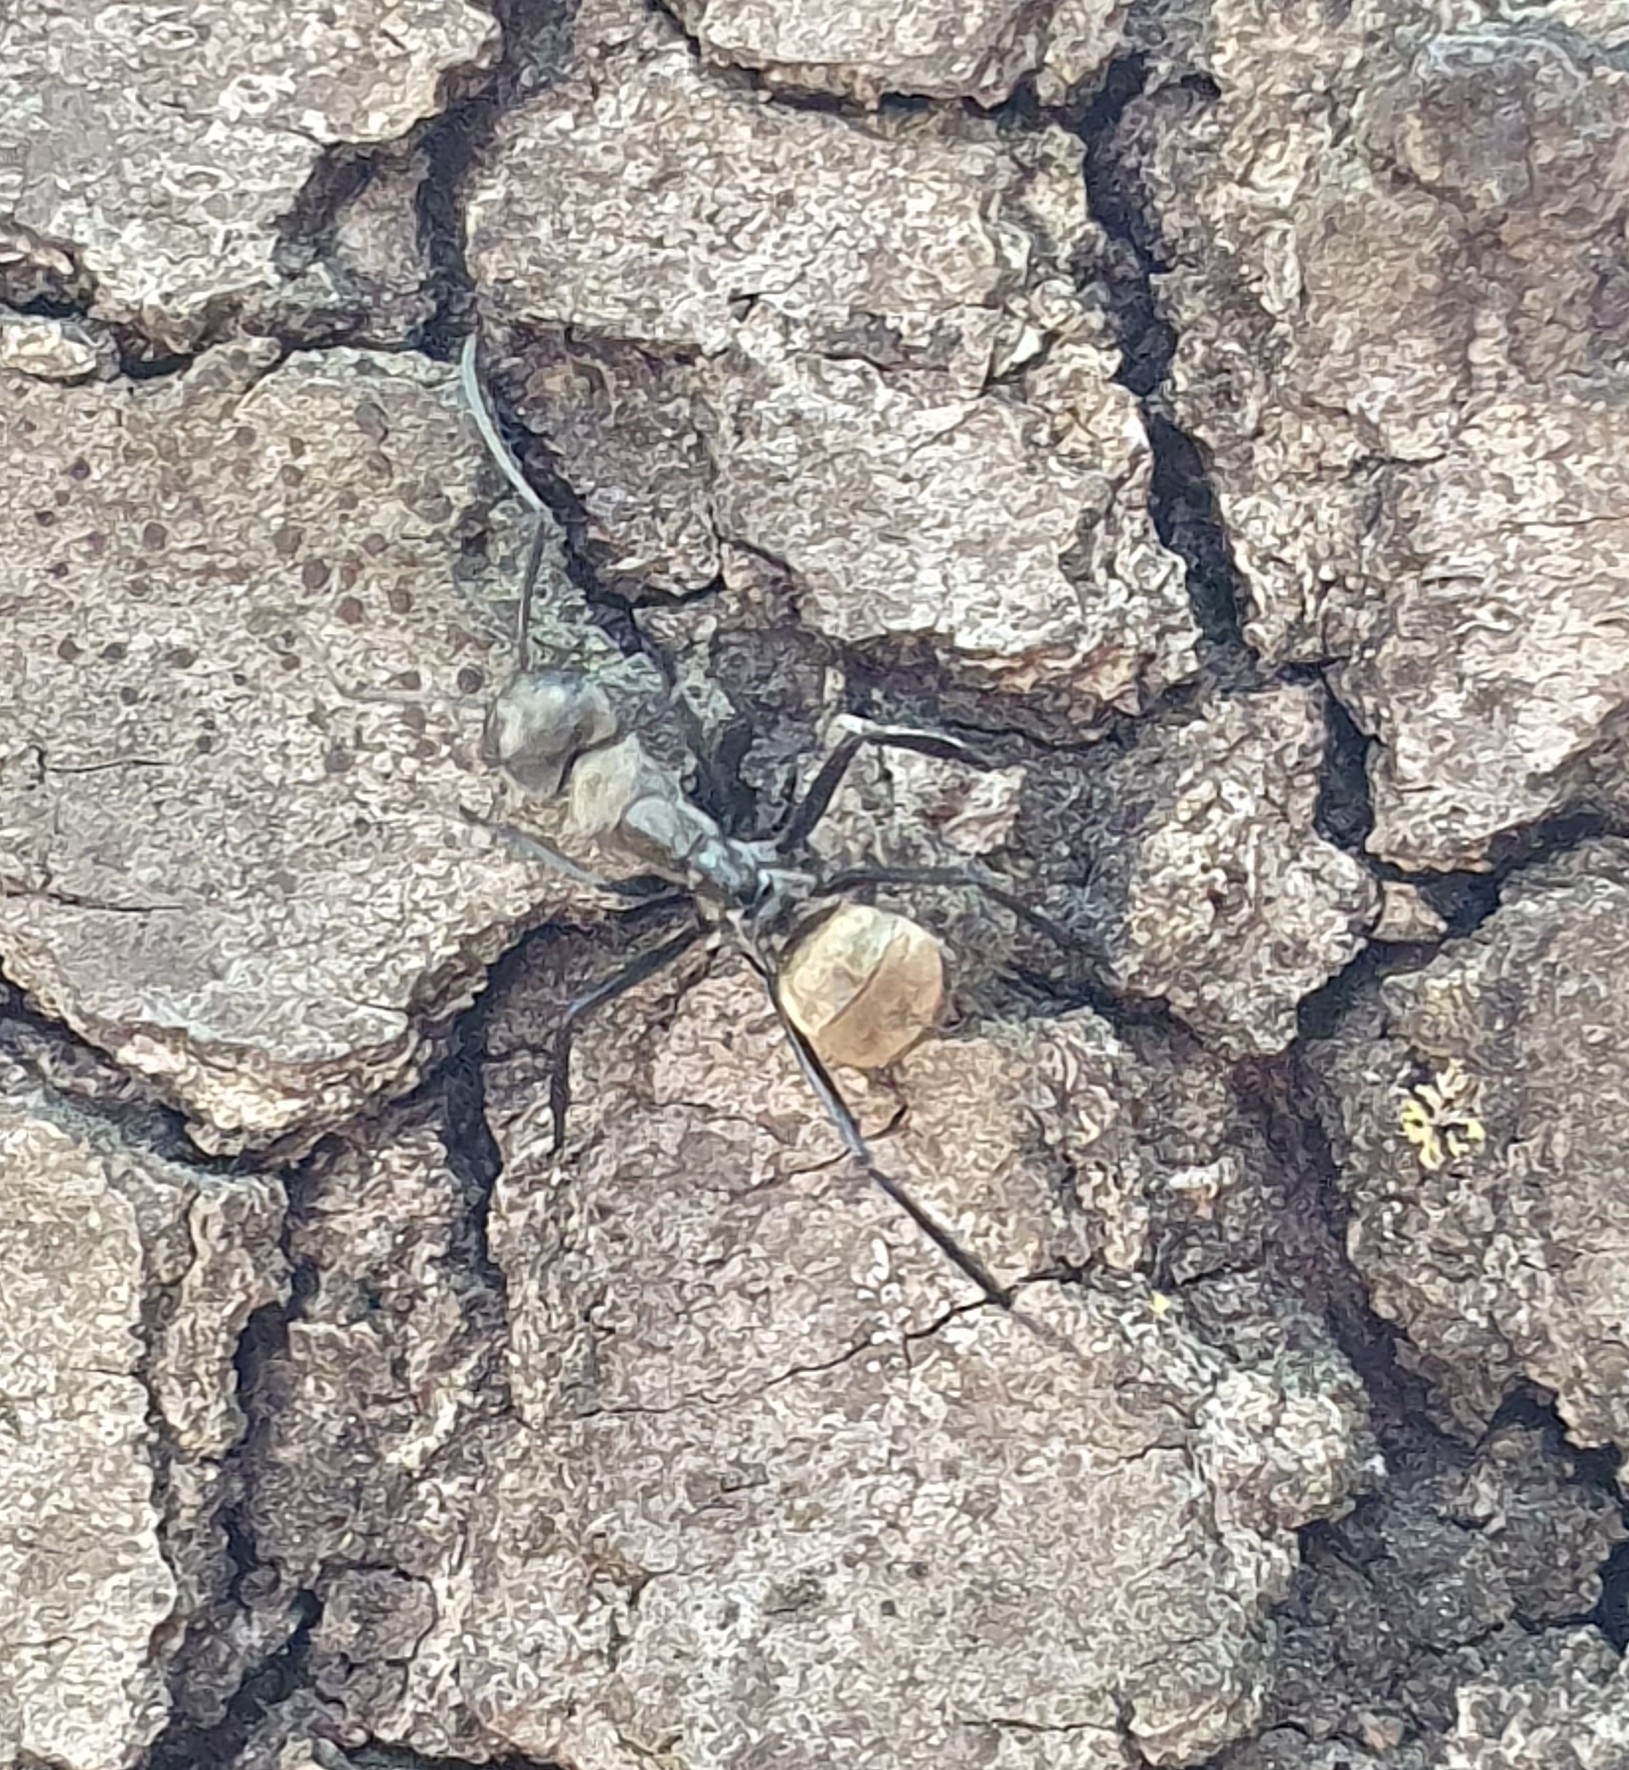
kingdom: Animalia
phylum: Arthropoda
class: Insecta
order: Hymenoptera
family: Formicidae
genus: Camponotus
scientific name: Camponotus sericeiventris
